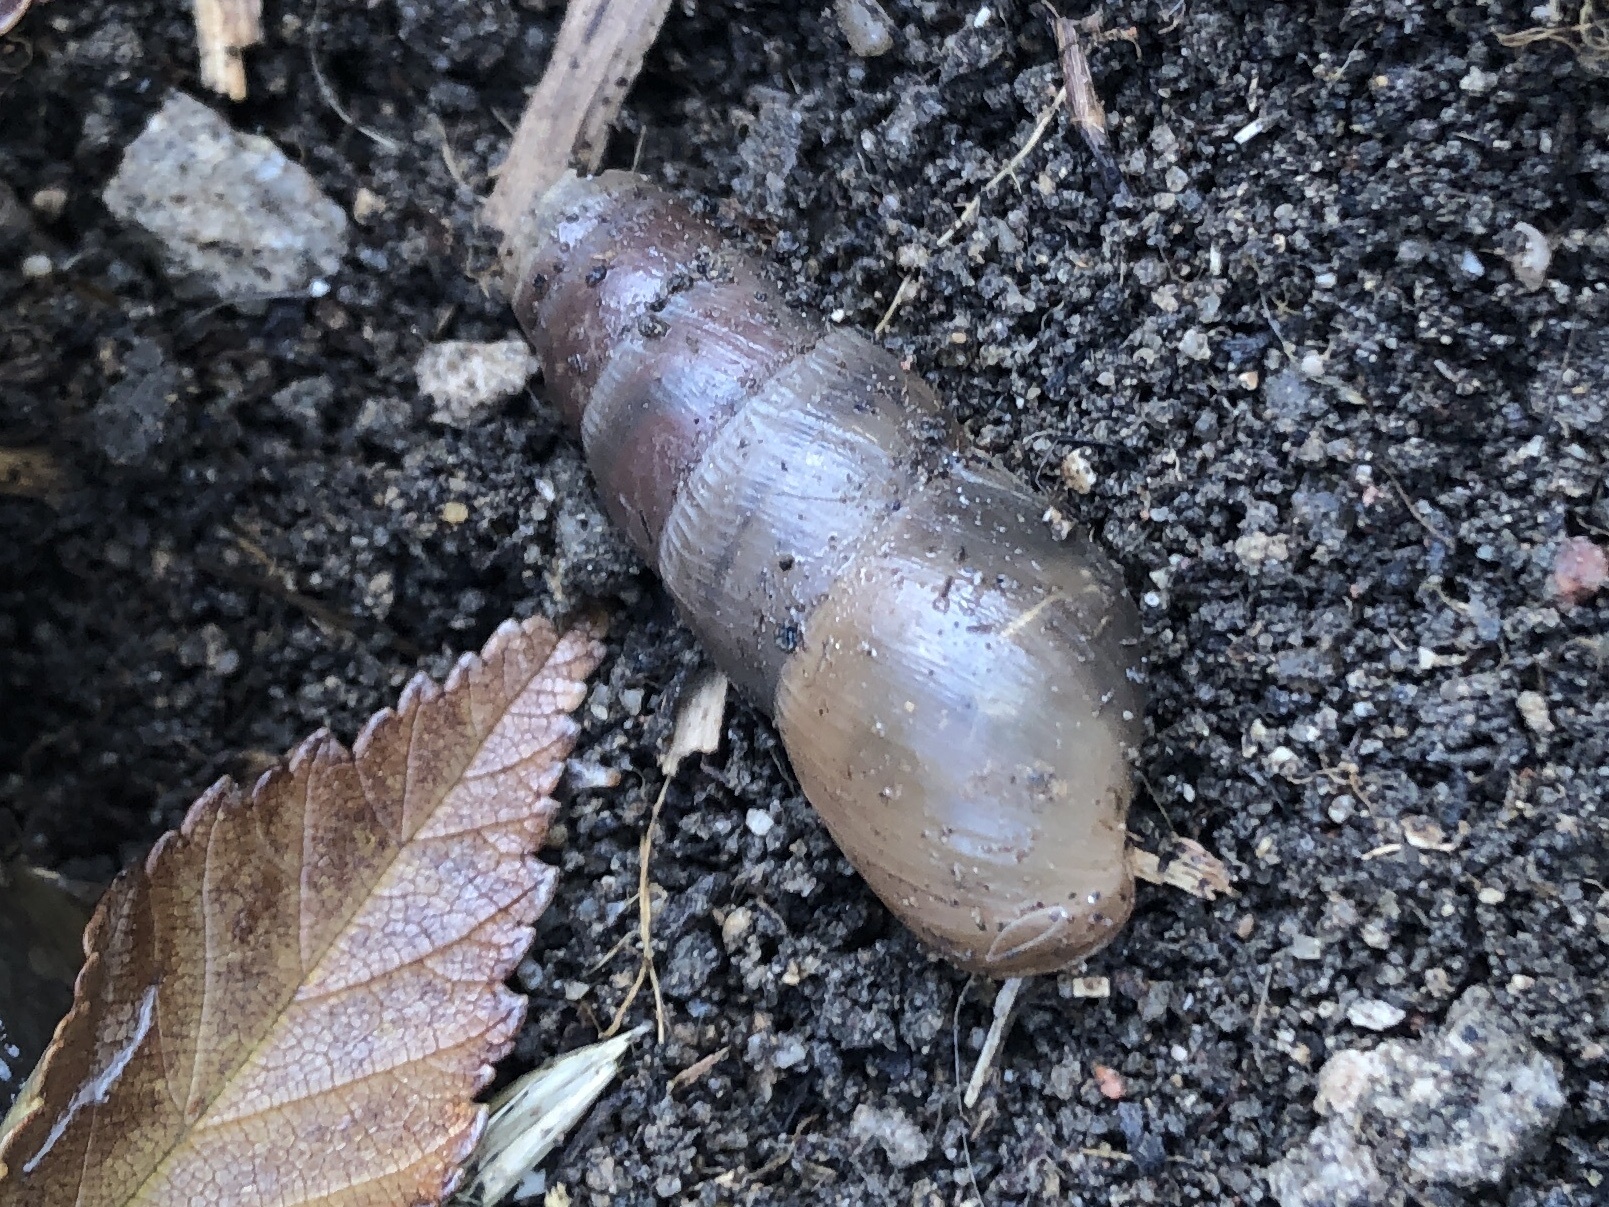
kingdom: Animalia
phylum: Mollusca
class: Gastropoda
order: Stylommatophora
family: Achatinidae
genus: Rumina
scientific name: Rumina decollata
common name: Decollate snail
